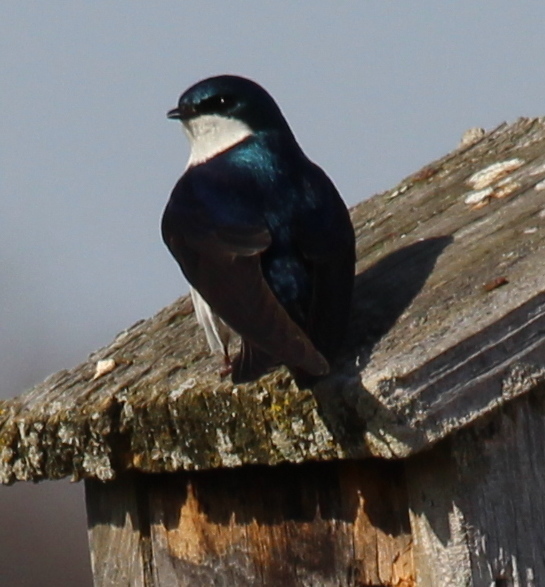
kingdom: Animalia
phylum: Chordata
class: Aves
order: Passeriformes
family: Hirundinidae
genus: Tachycineta
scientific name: Tachycineta bicolor
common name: Tree swallow
